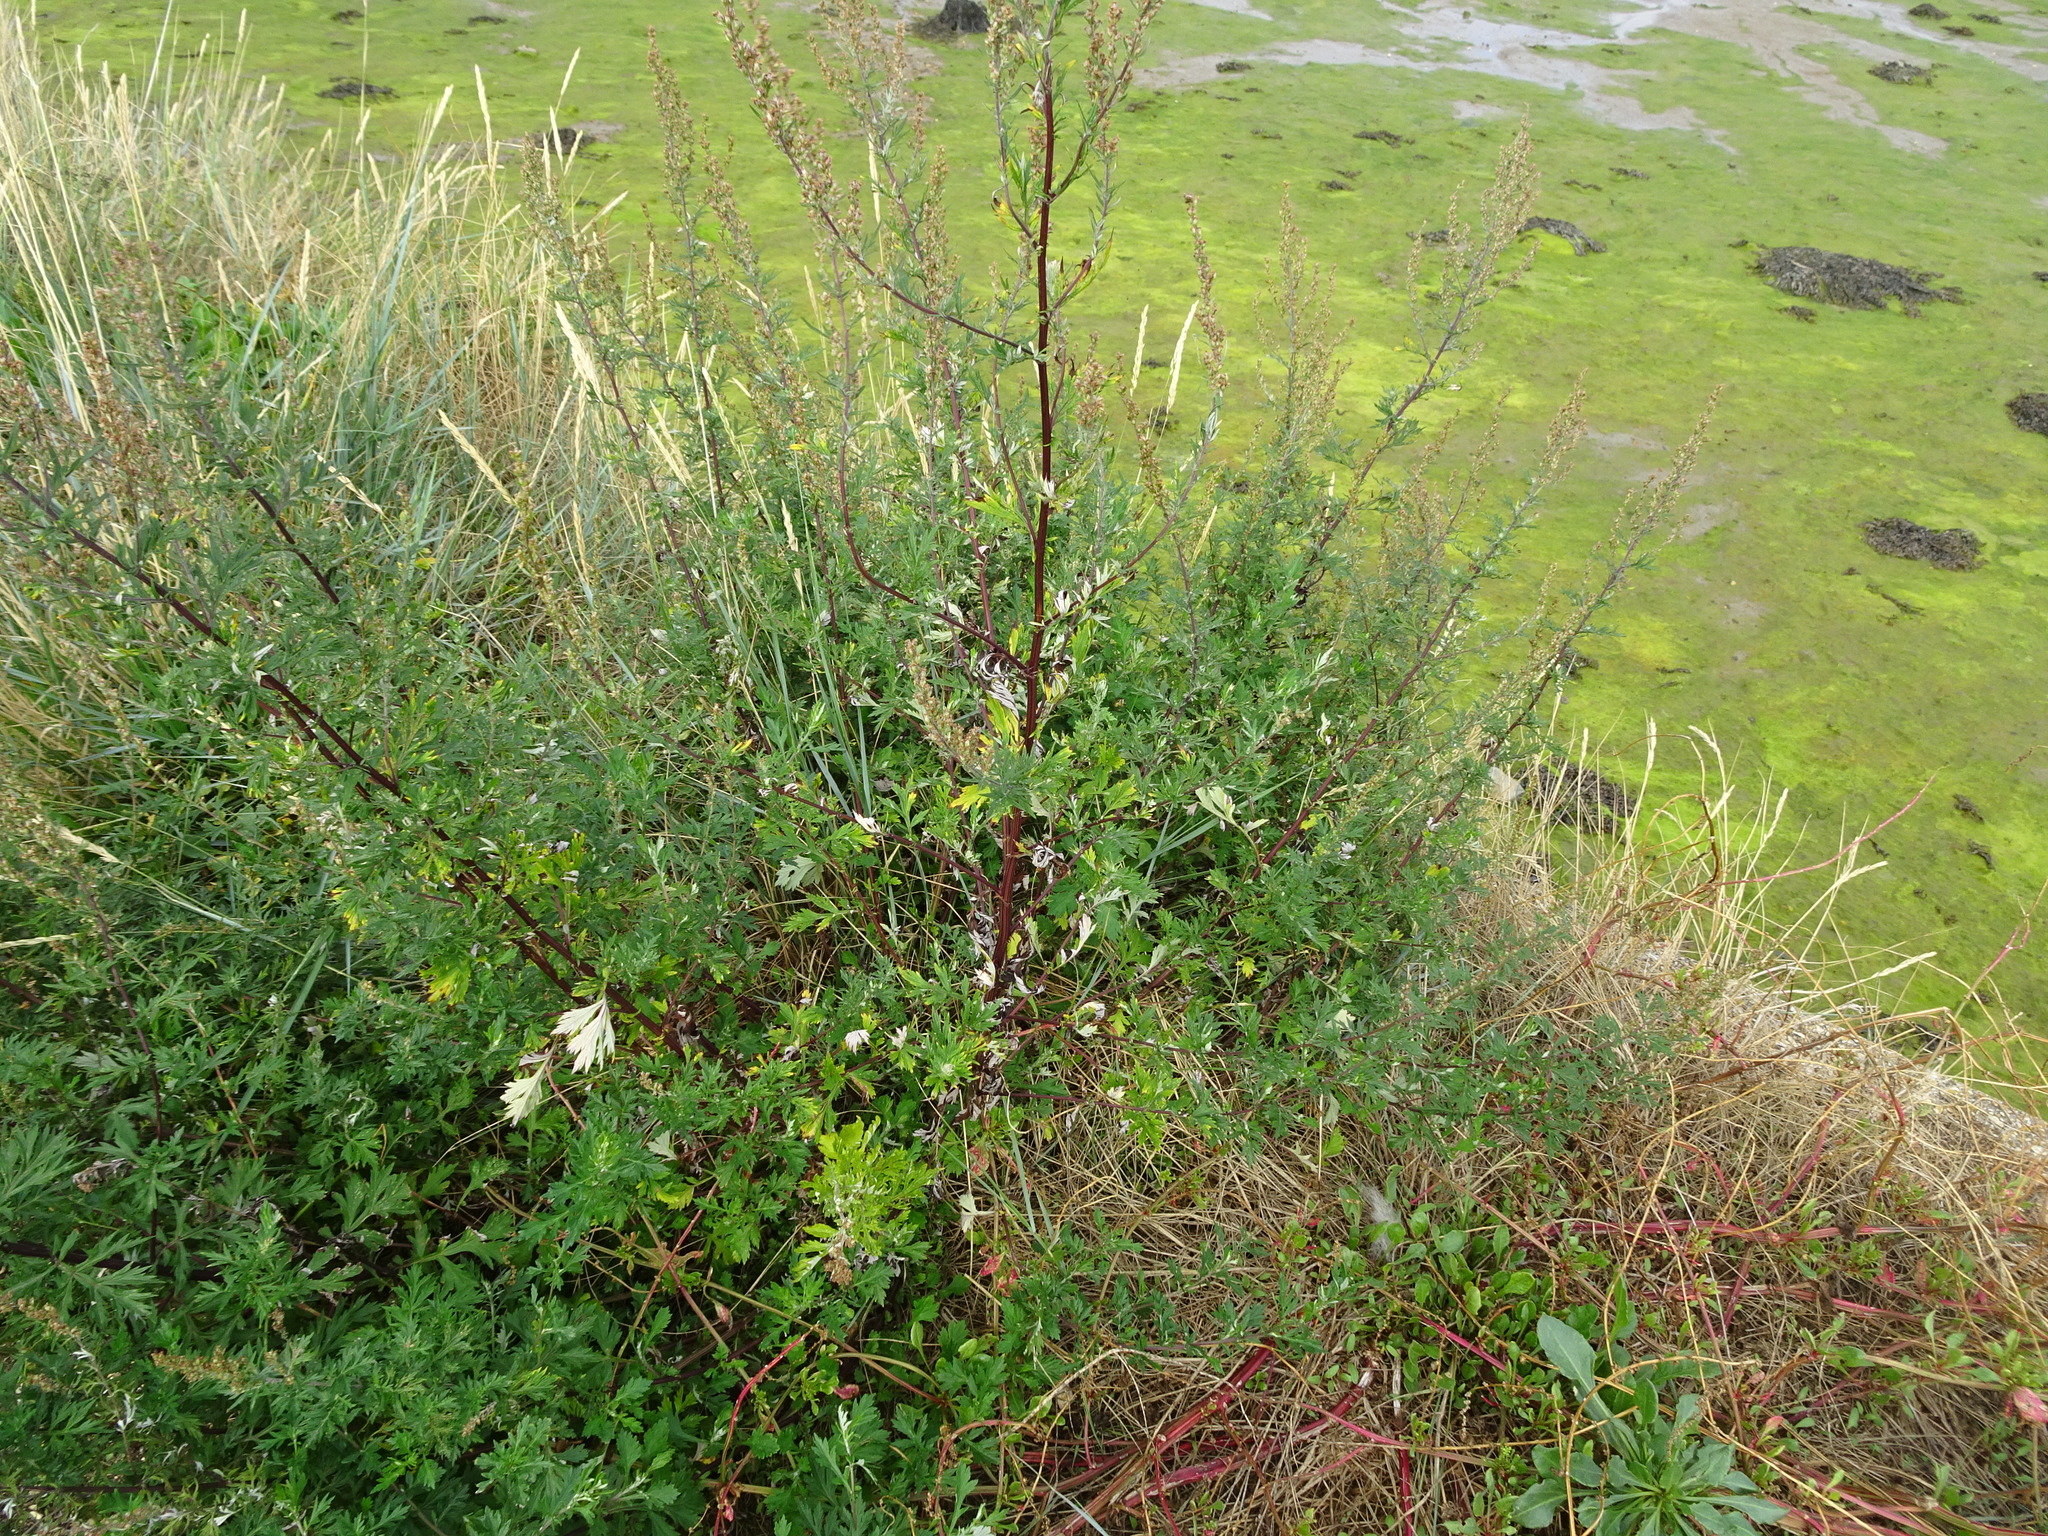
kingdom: Plantae
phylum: Tracheophyta
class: Magnoliopsida
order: Asterales
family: Asteraceae
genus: Artemisia
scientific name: Artemisia vulgaris
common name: Mugwort
